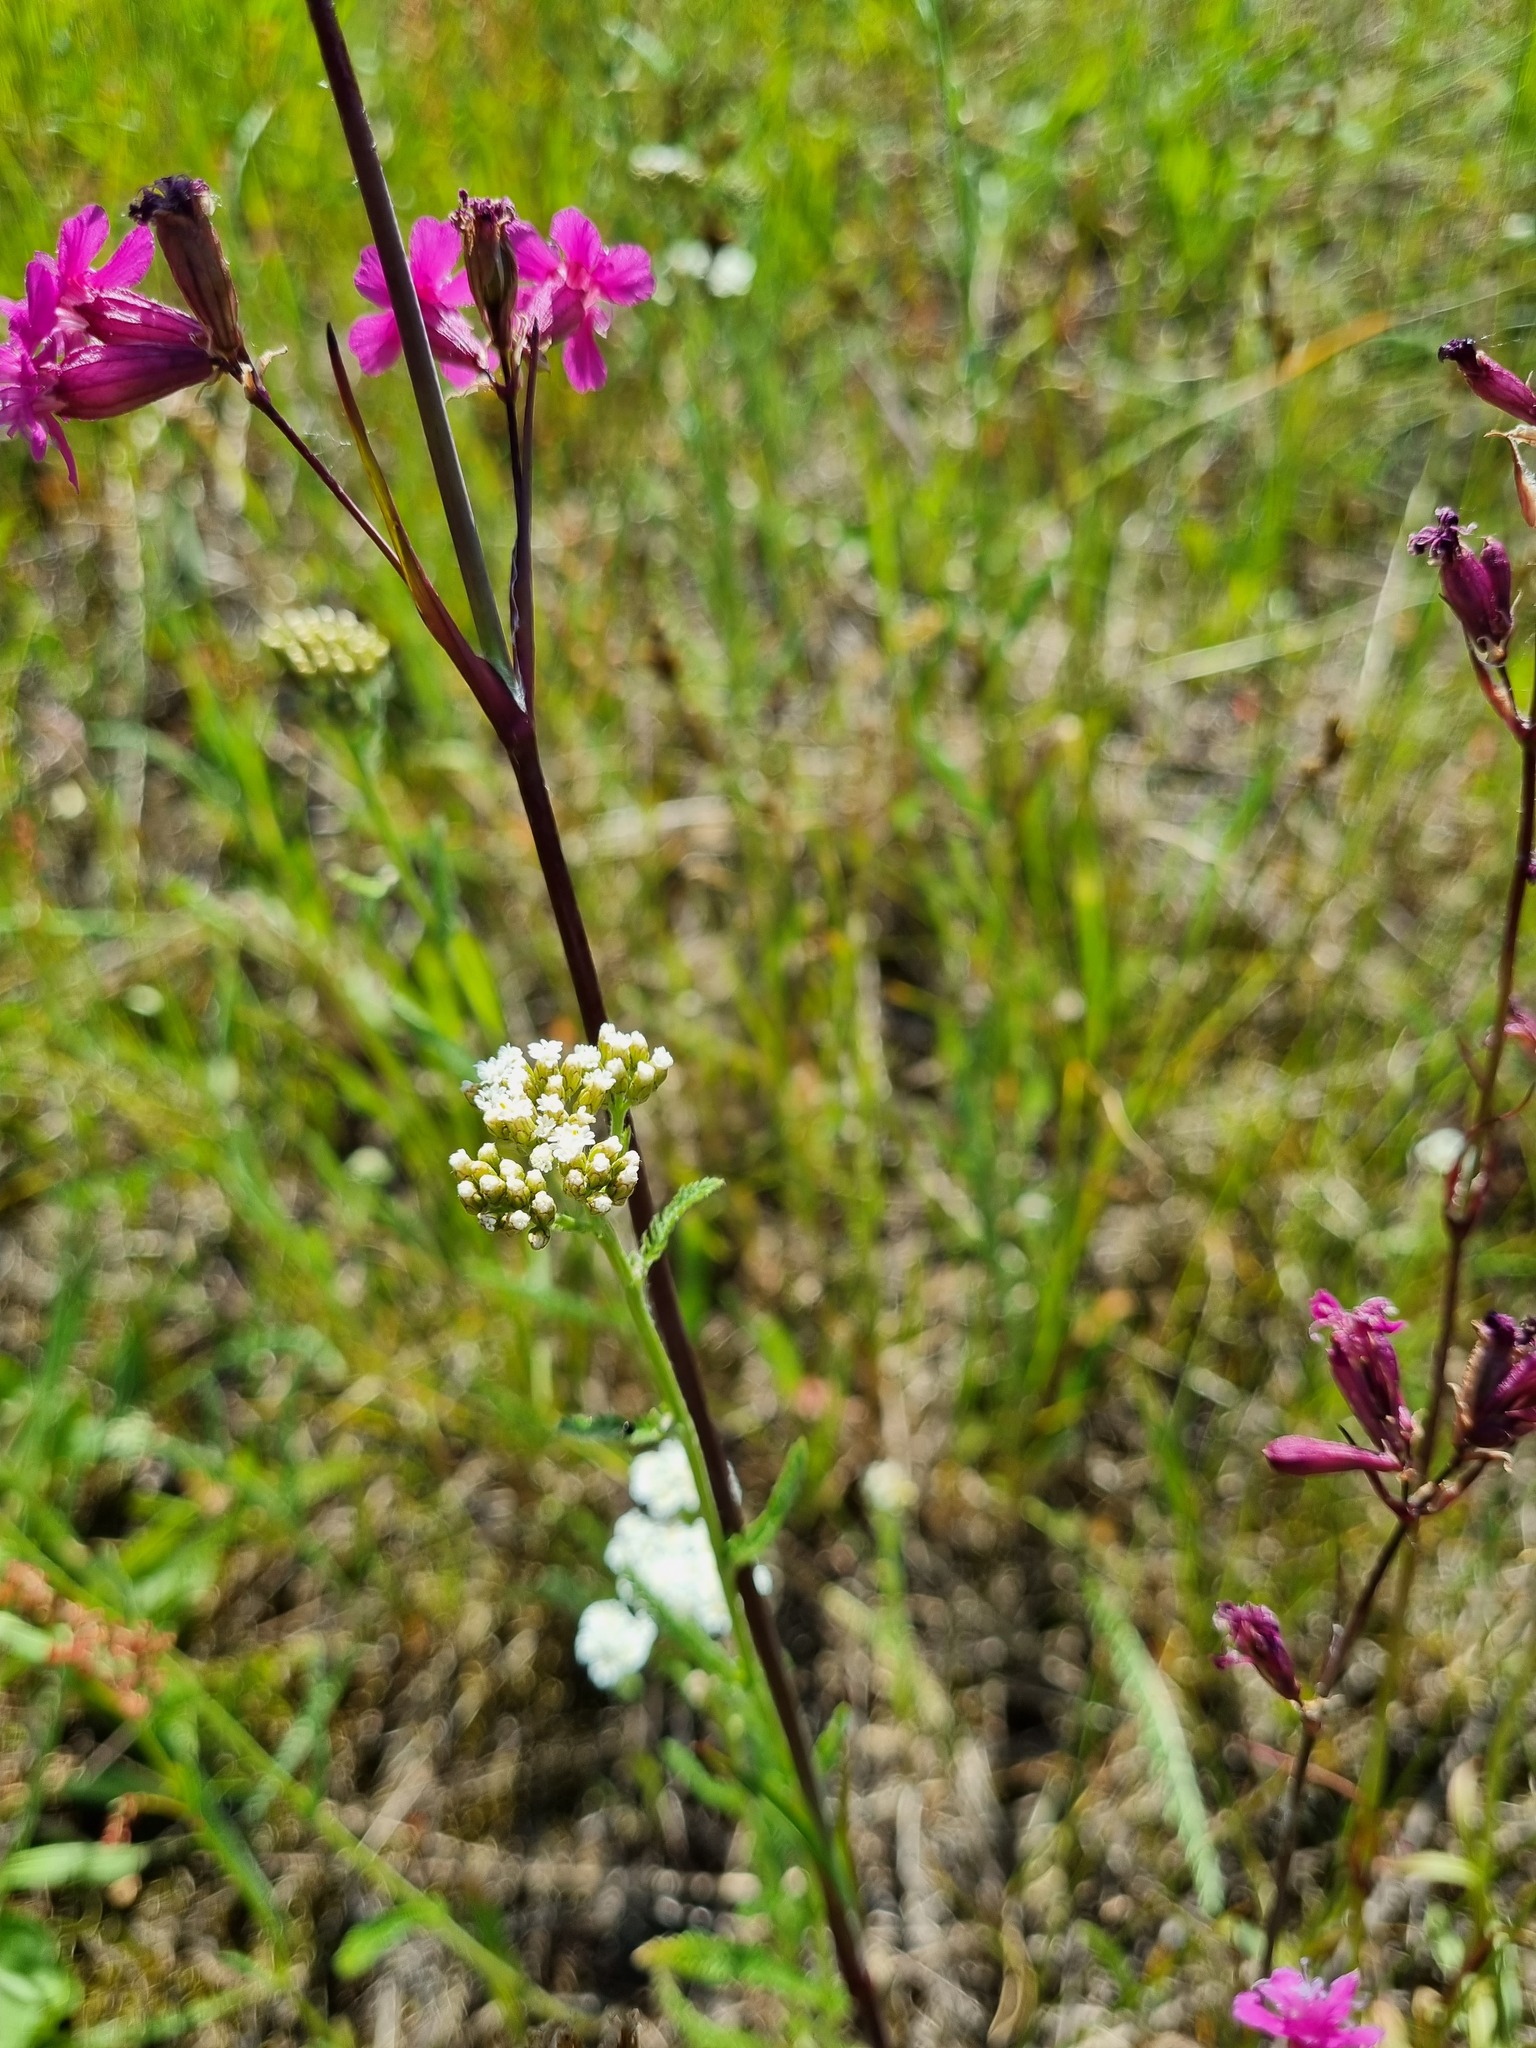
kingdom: Plantae
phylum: Tracheophyta
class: Magnoliopsida
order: Asterales
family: Asteraceae
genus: Achillea
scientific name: Achillea millefolium
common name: Yarrow
